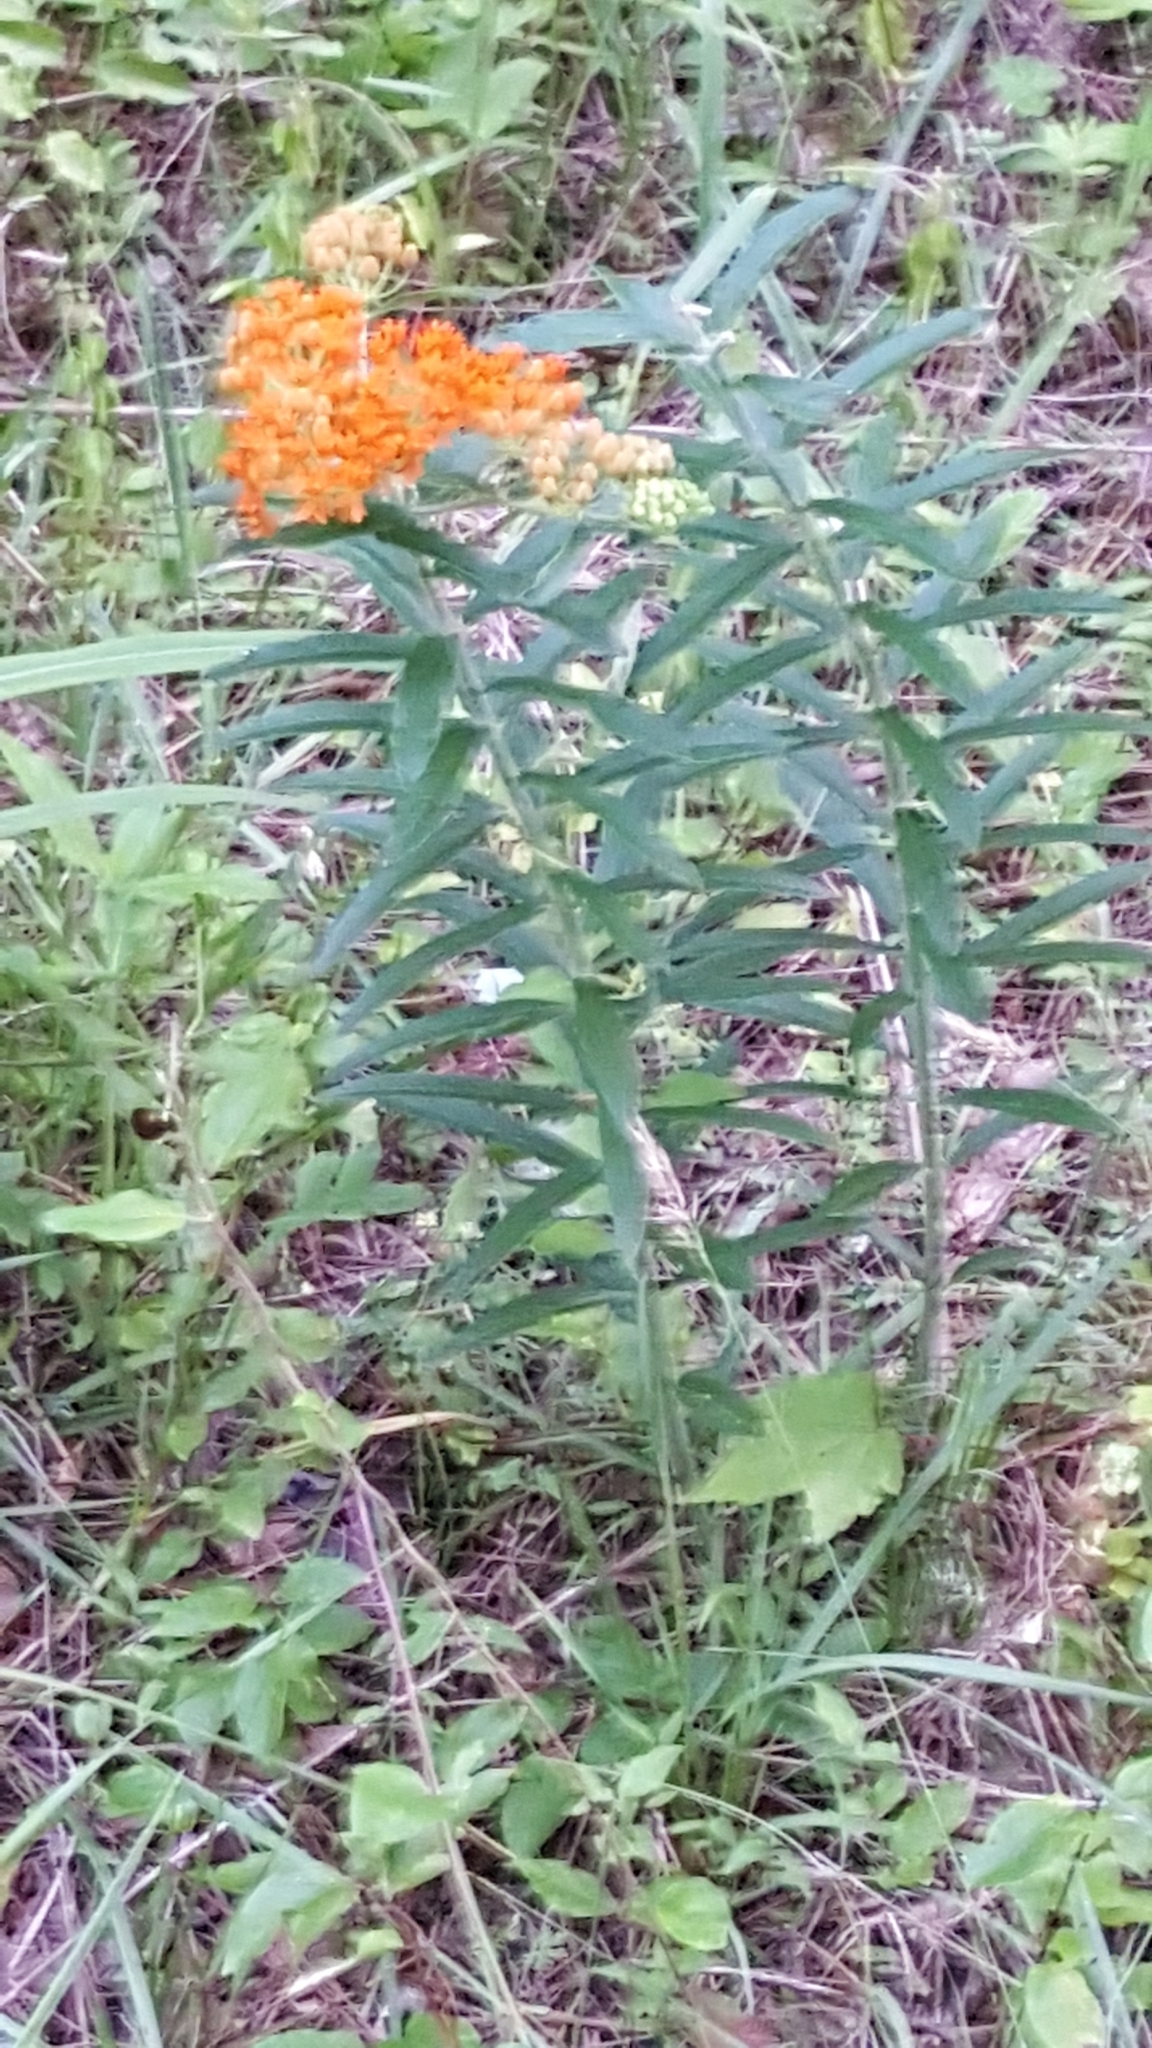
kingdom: Plantae
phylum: Tracheophyta
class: Magnoliopsida
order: Gentianales
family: Apocynaceae
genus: Asclepias
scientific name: Asclepias tuberosa
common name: Butterfly milkweed
